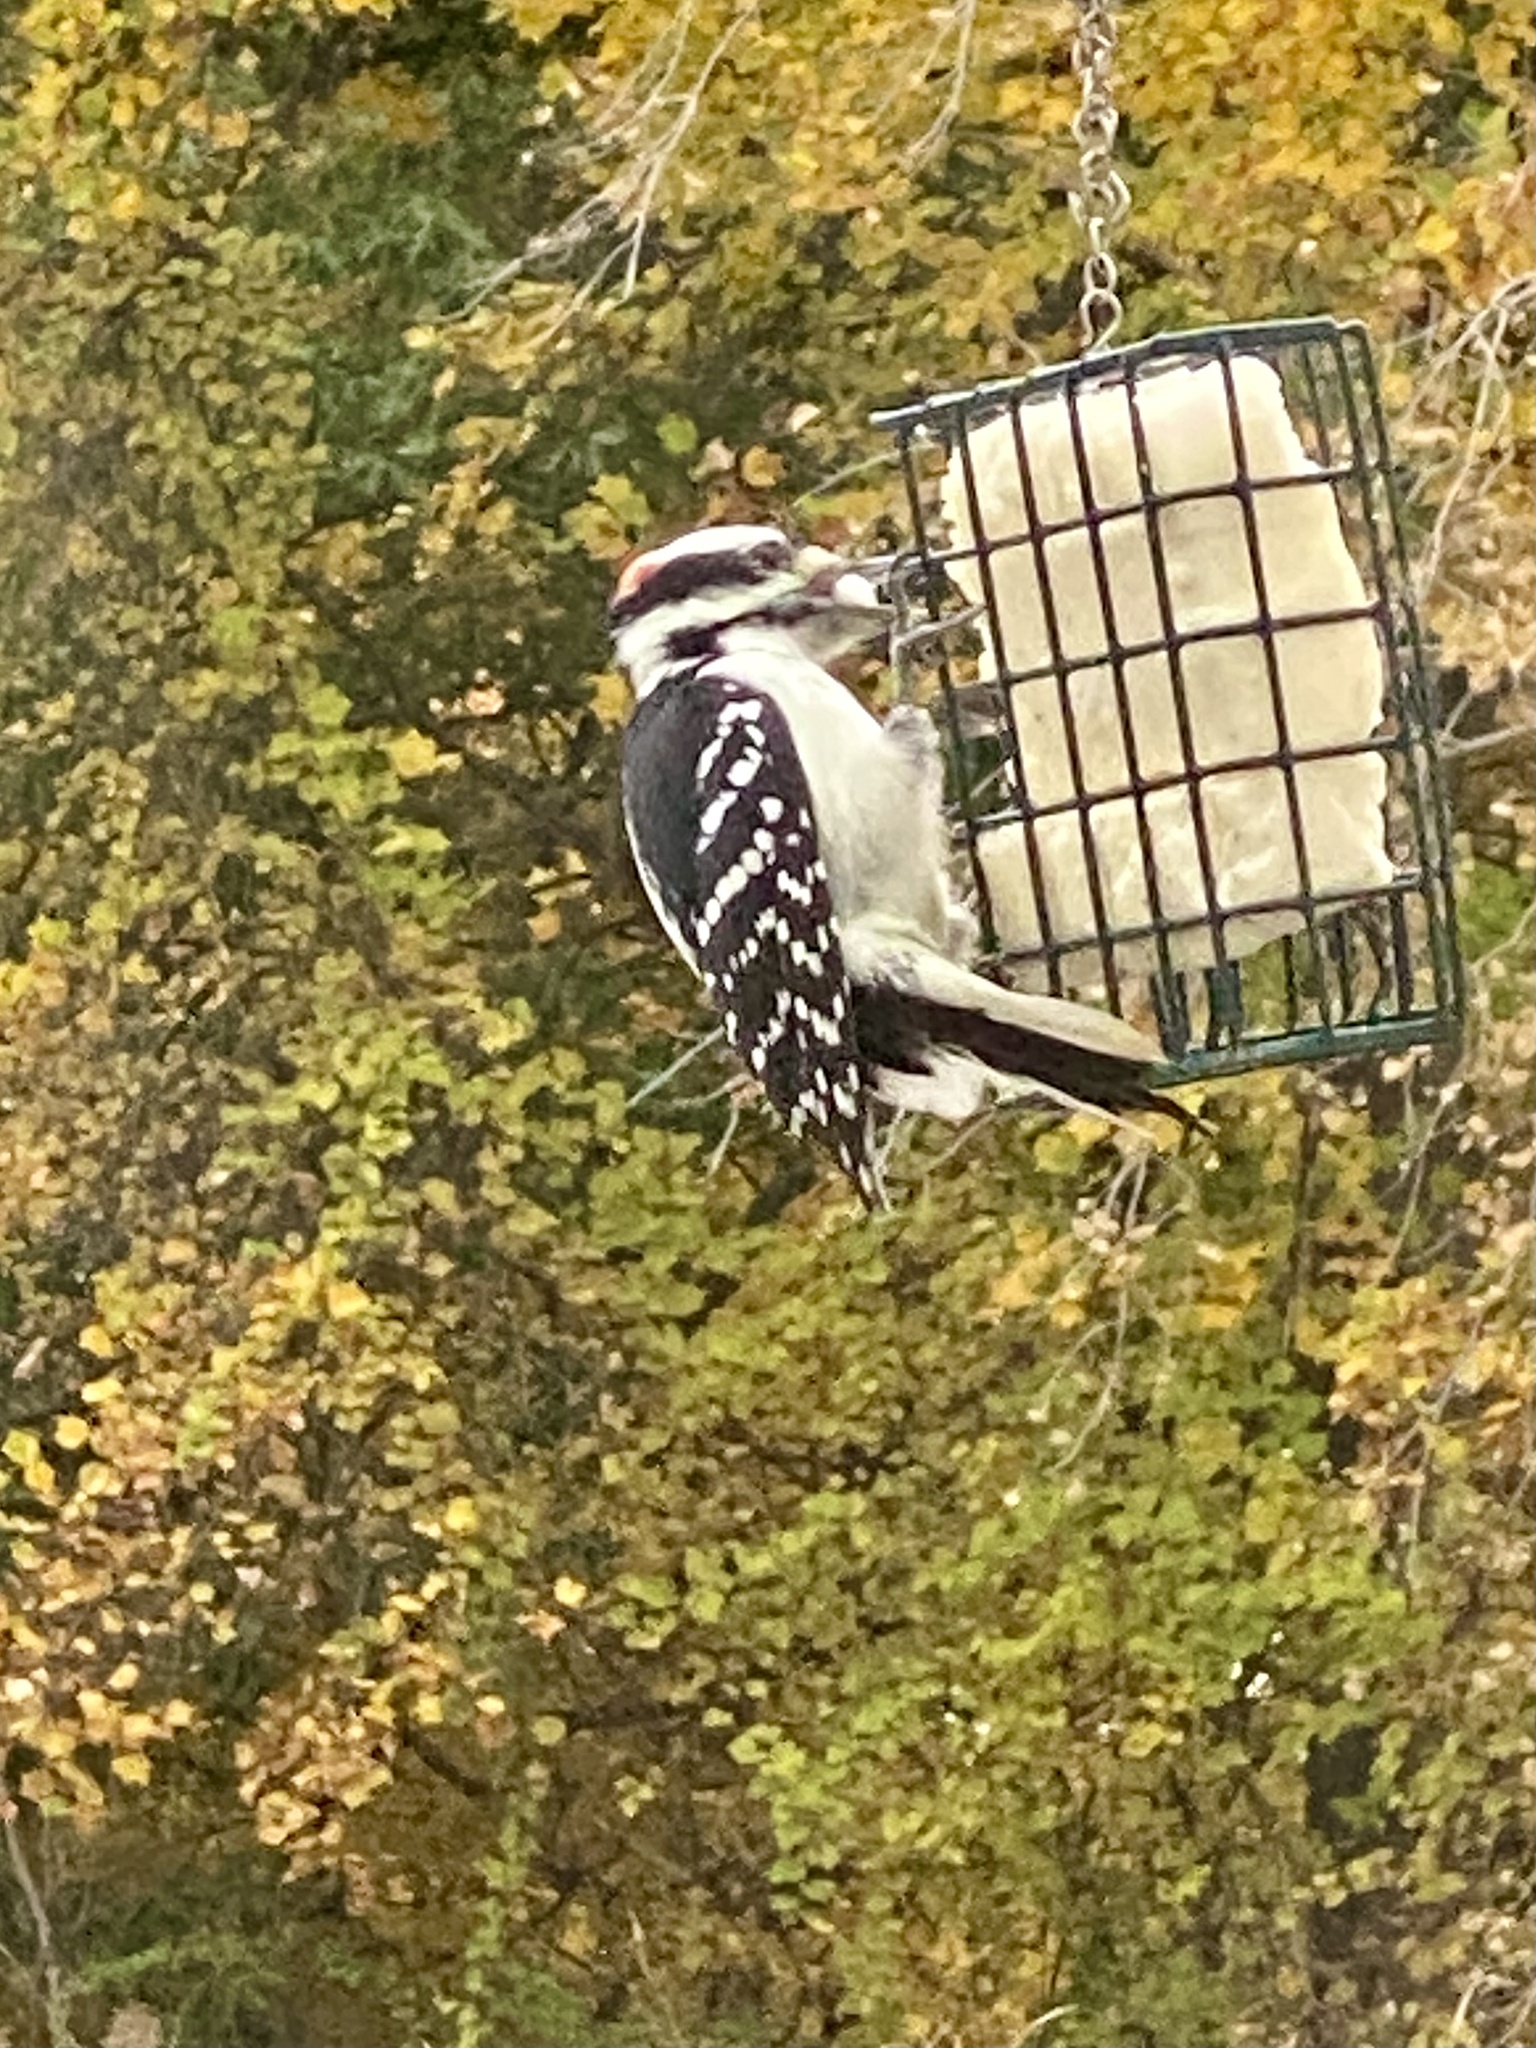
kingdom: Animalia
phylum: Chordata
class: Aves
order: Piciformes
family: Picidae
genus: Leuconotopicus
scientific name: Leuconotopicus villosus
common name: Hairy woodpecker
